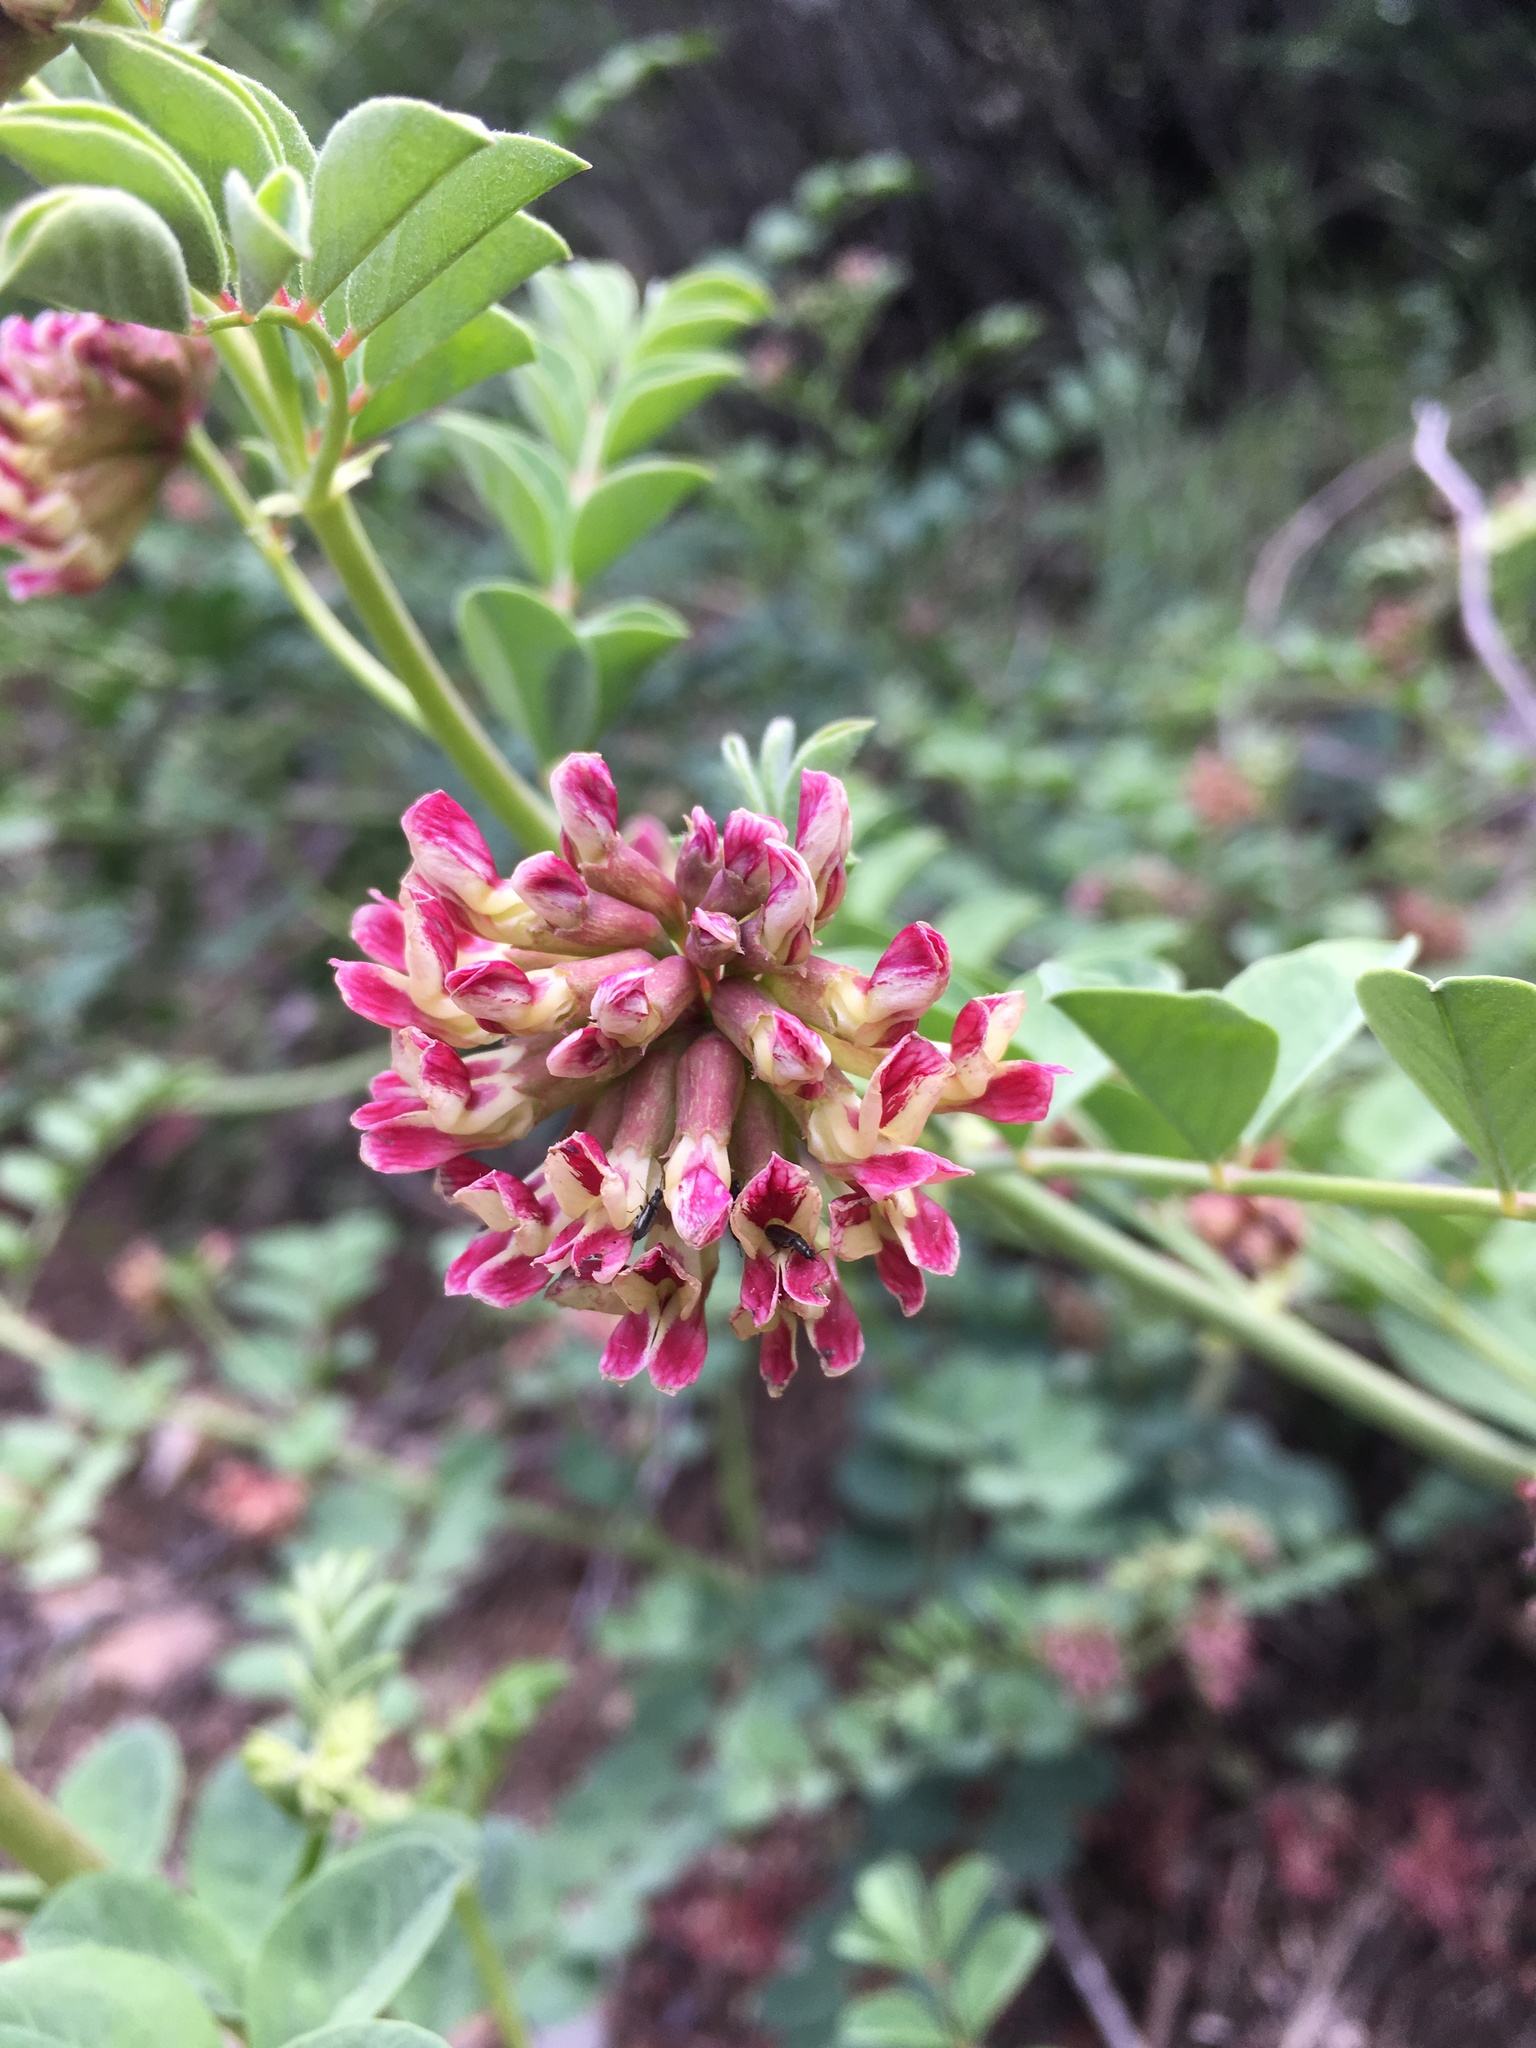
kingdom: Plantae
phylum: Tracheophyta
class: Magnoliopsida
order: Fabales
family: Fabaceae
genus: Hosackia
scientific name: Hosackia crassifolia
